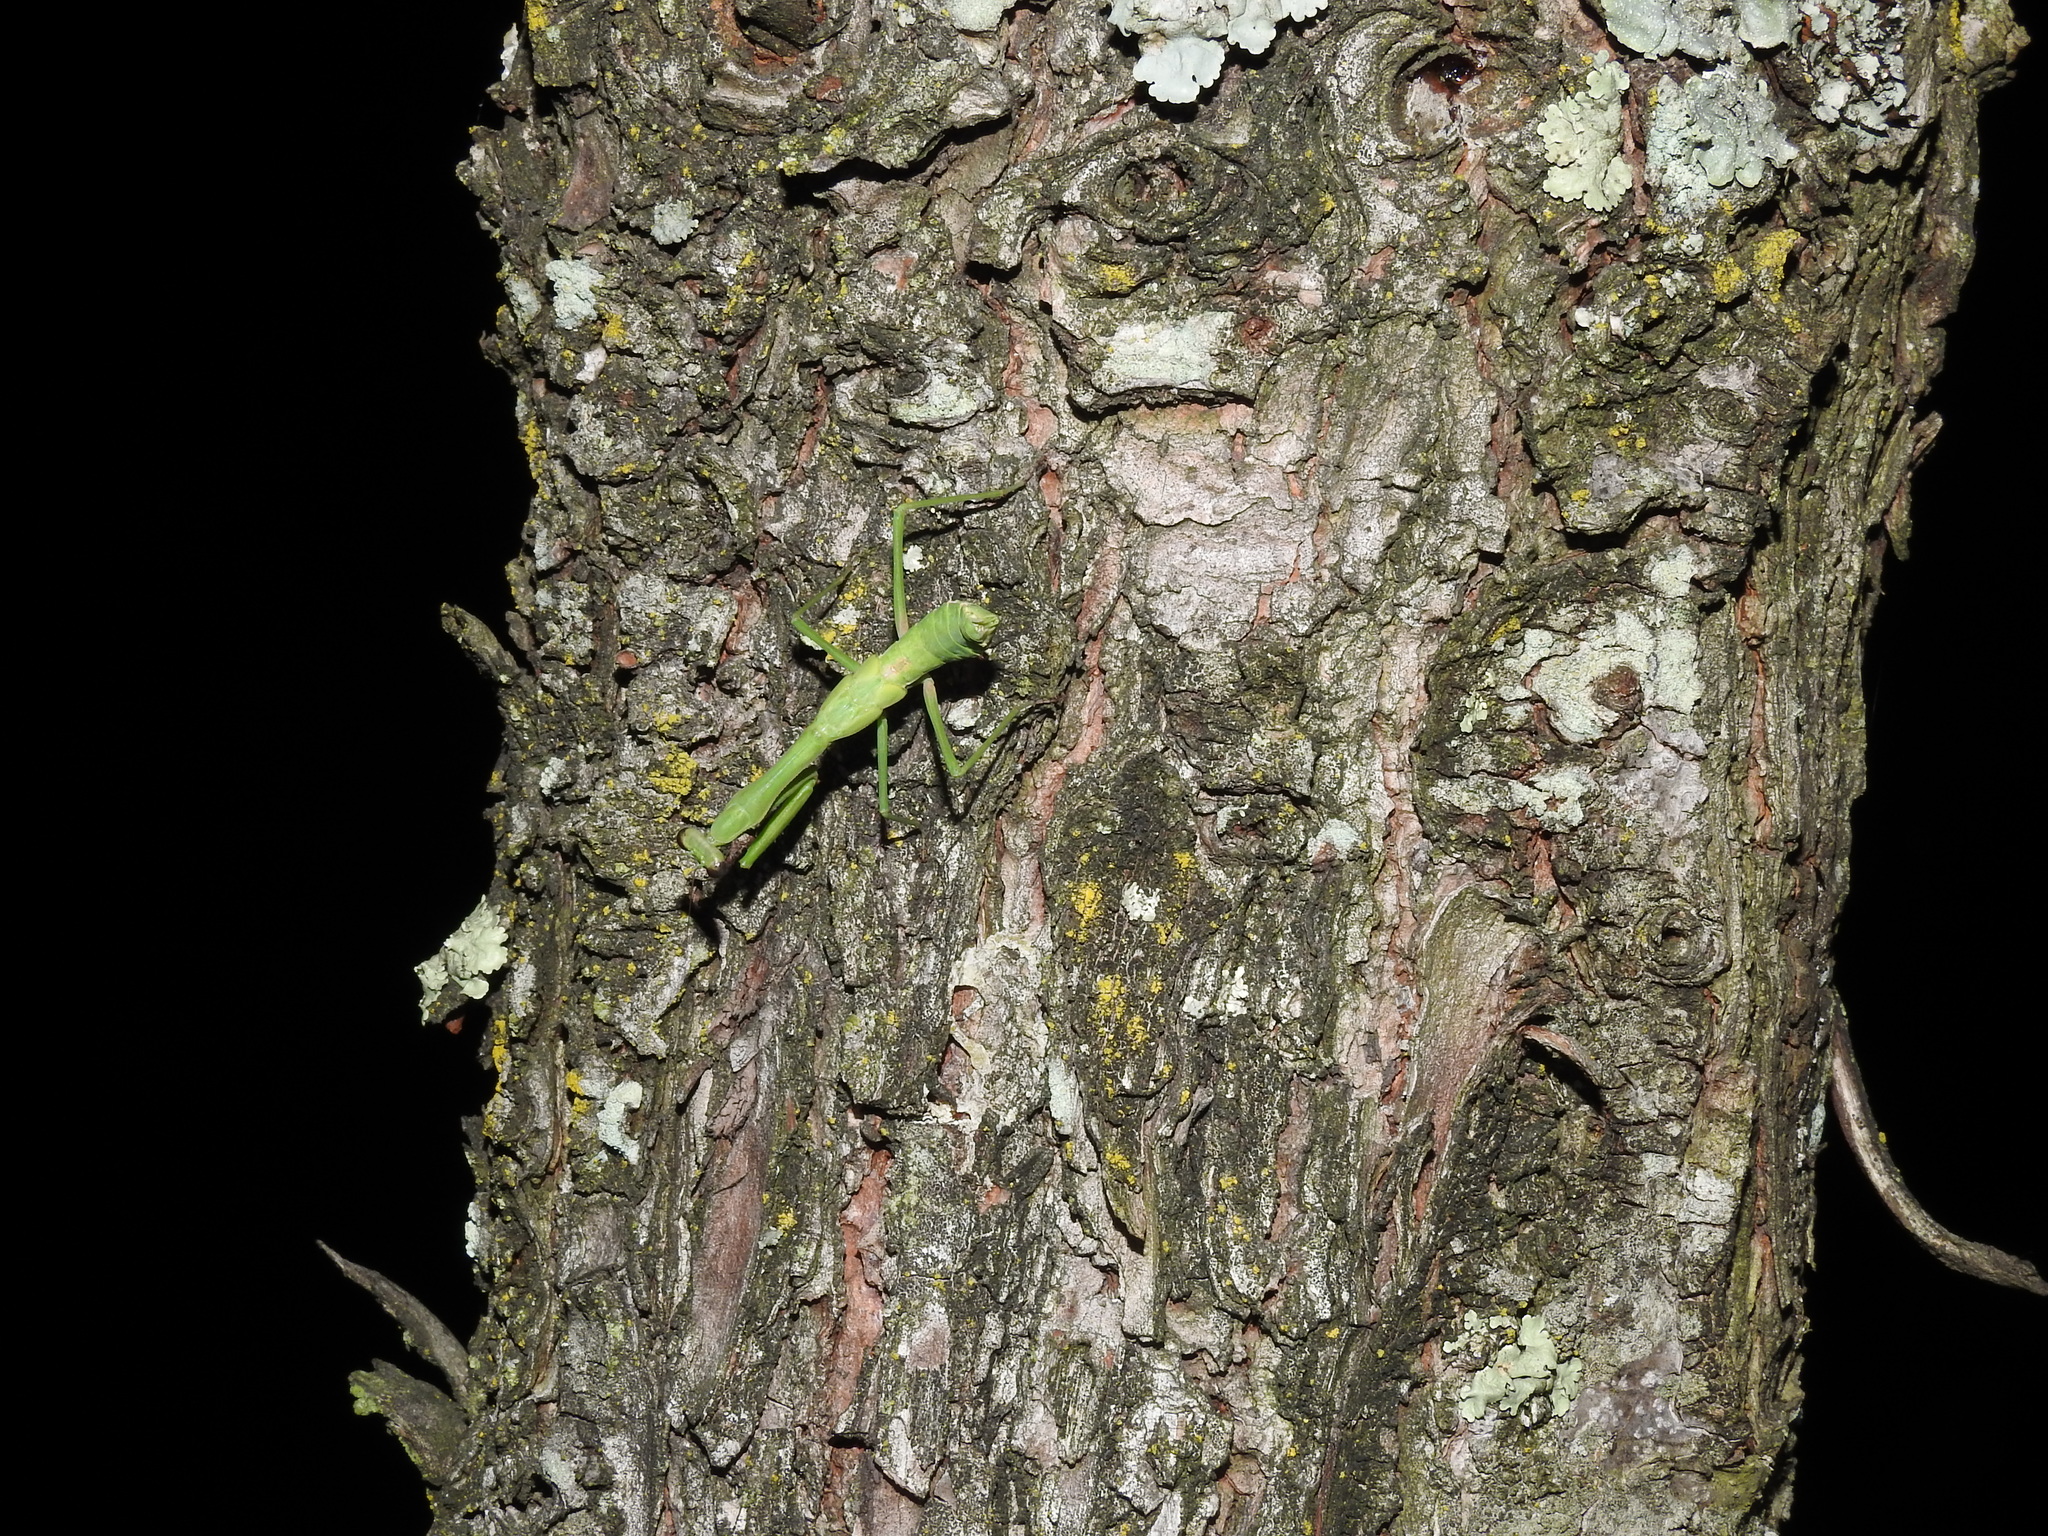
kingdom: Animalia
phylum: Arthropoda
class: Insecta
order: Mantodea
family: Mantidae
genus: Stagmomantis
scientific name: Stagmomantis carolina
